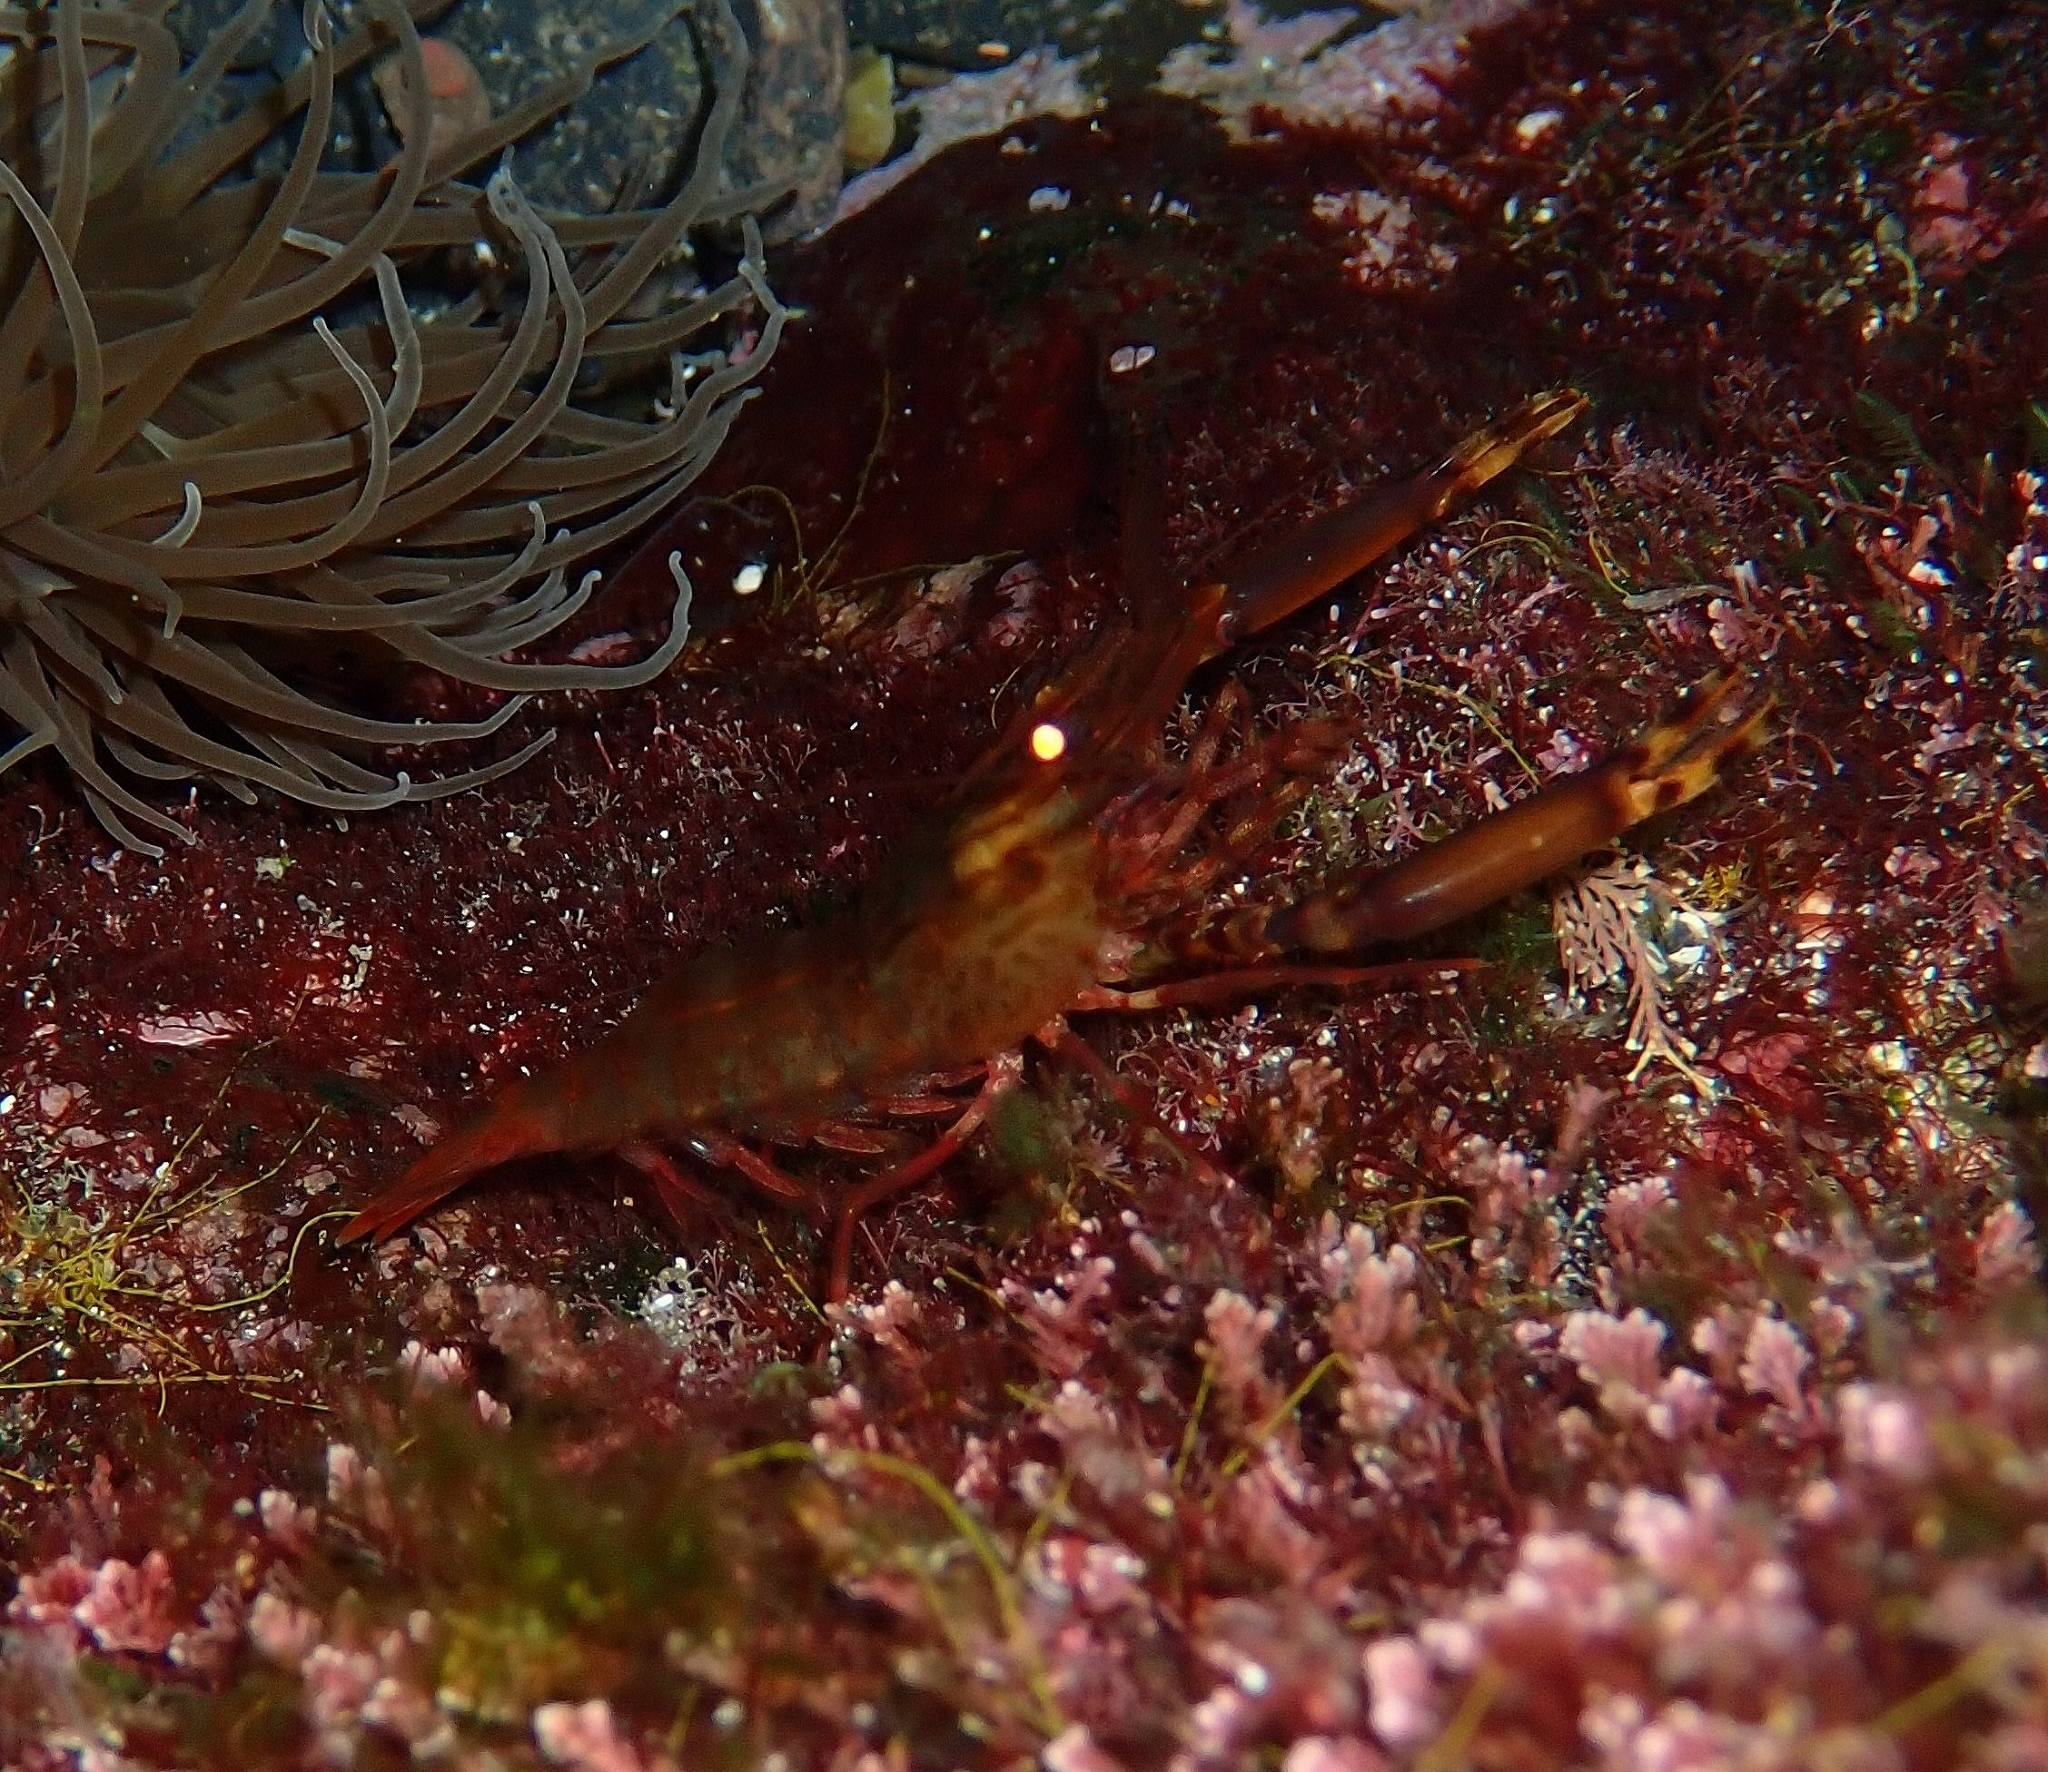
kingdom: Animalia
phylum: Arthropoda
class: Malacostraca
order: Decapoda
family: Palaemonidae
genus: Brachycarpus
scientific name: Brachycarpus biunguiculatus
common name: Two-clawed shrimp
